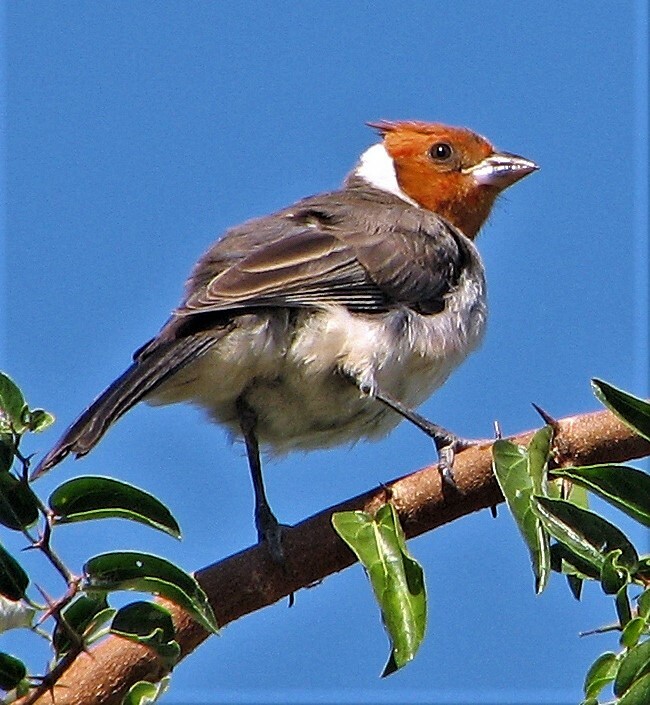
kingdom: Animalia
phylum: Chordata
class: Aves
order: Passeriformes
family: Thraupidae
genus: Paroaria
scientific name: Paroaria coronata
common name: Red-crested cardinal
